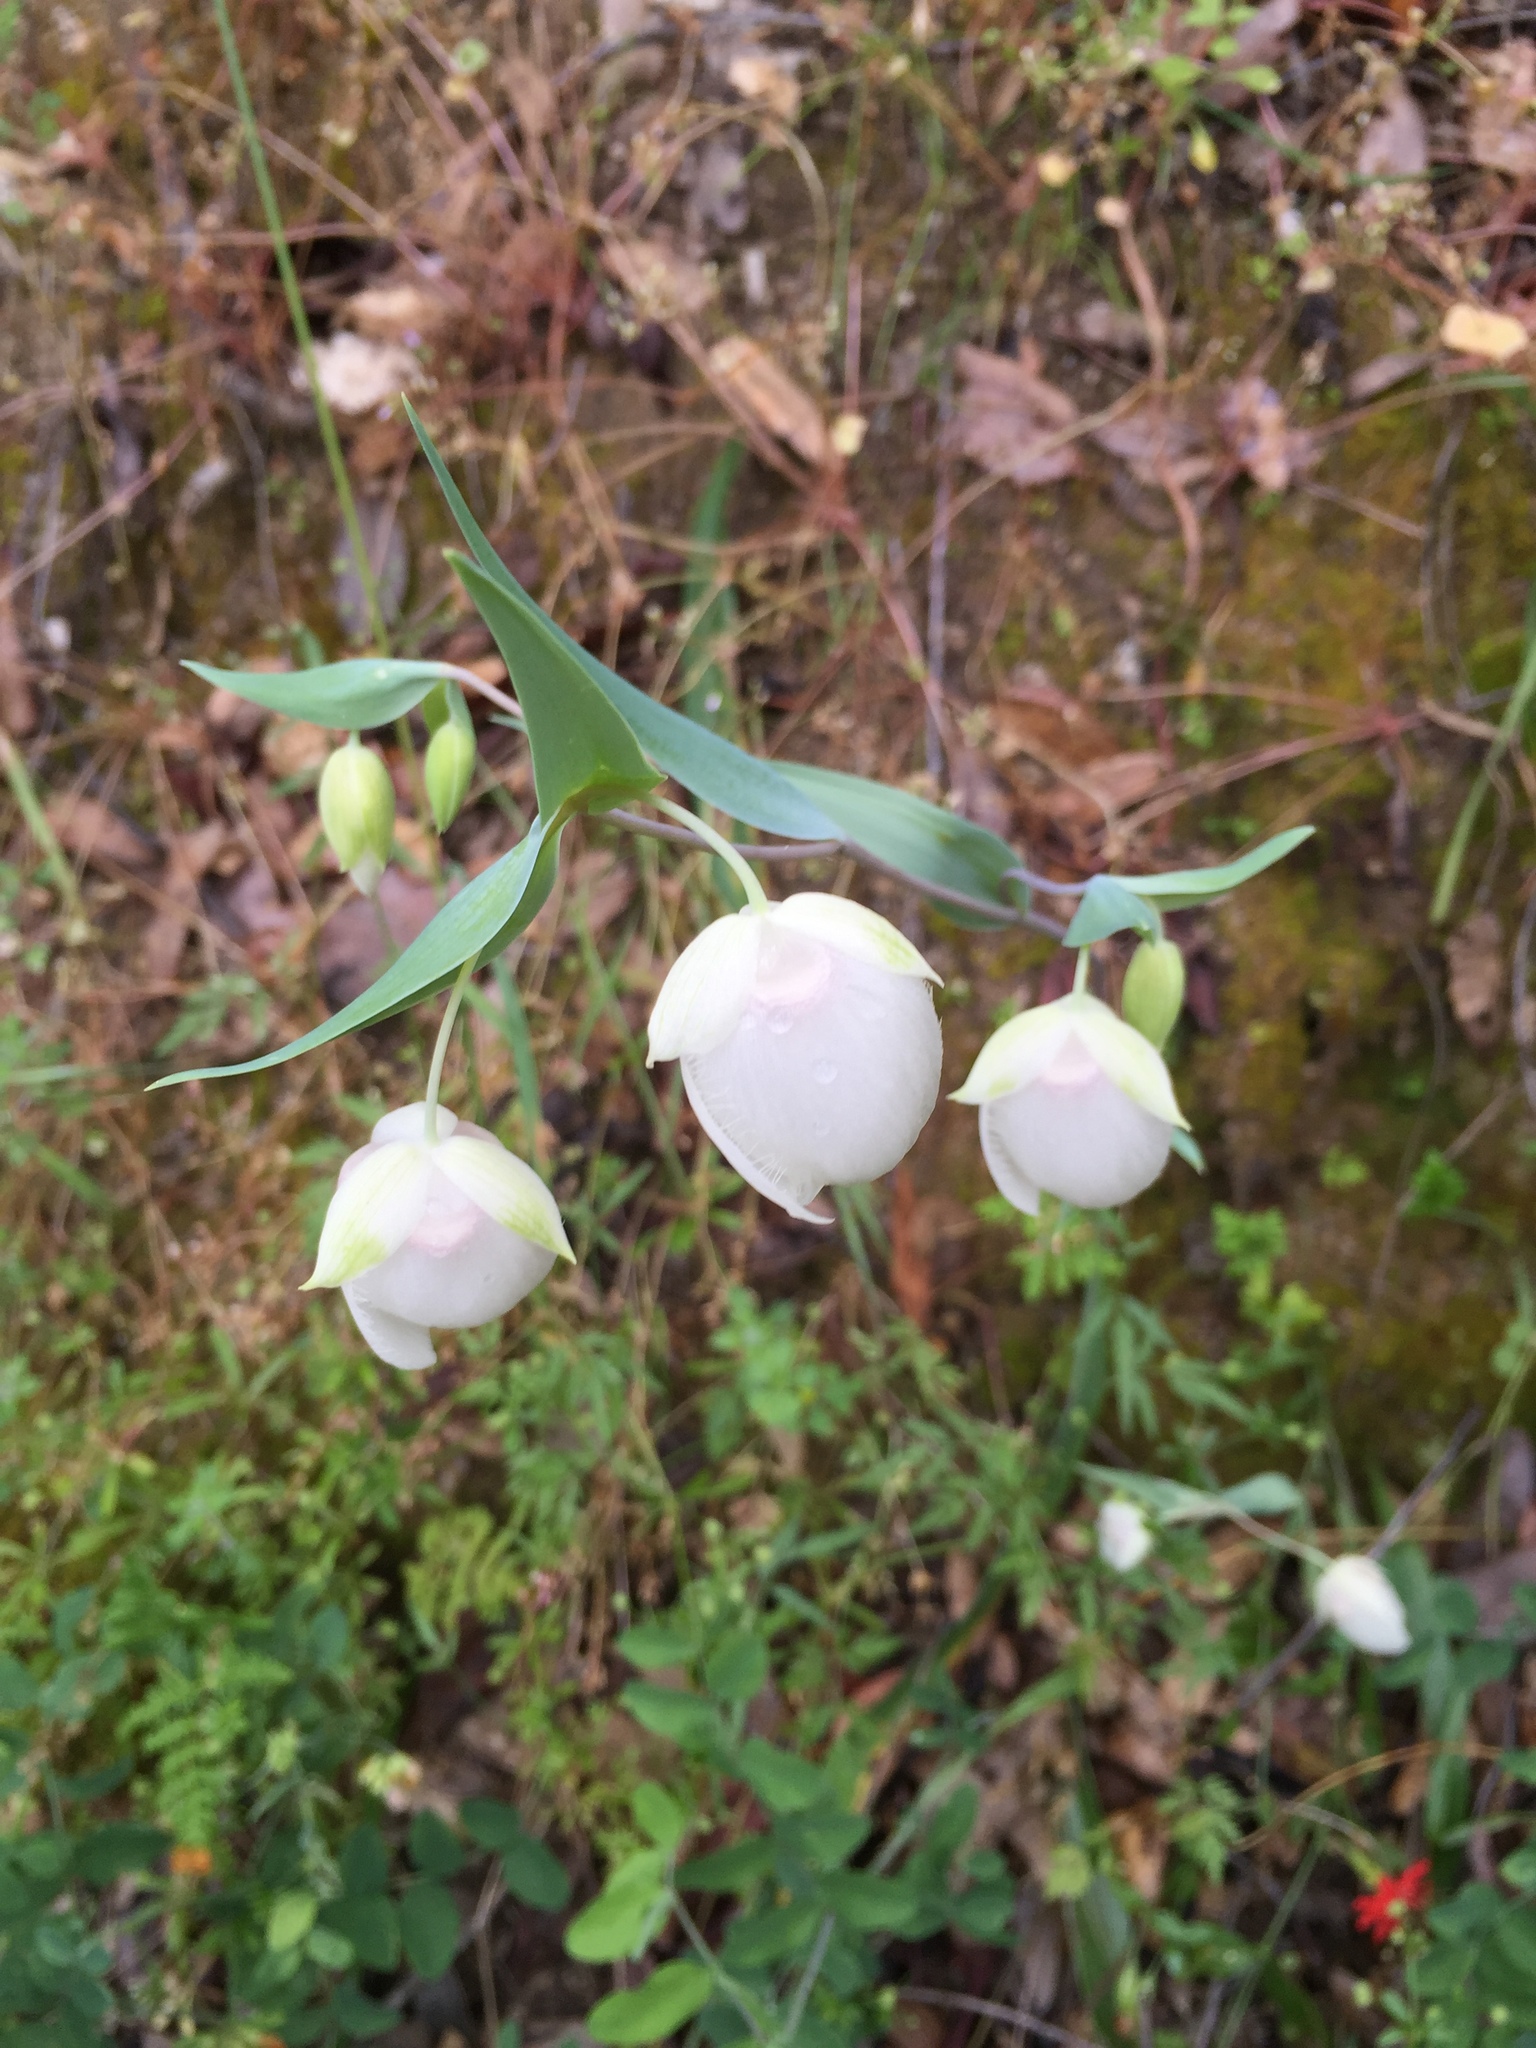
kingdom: Plantae
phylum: Tracheophyta
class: Liliopsida
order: Liliales
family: Liliaceae
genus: Calochortus
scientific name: Calochortus albus
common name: Fairy-lantern
